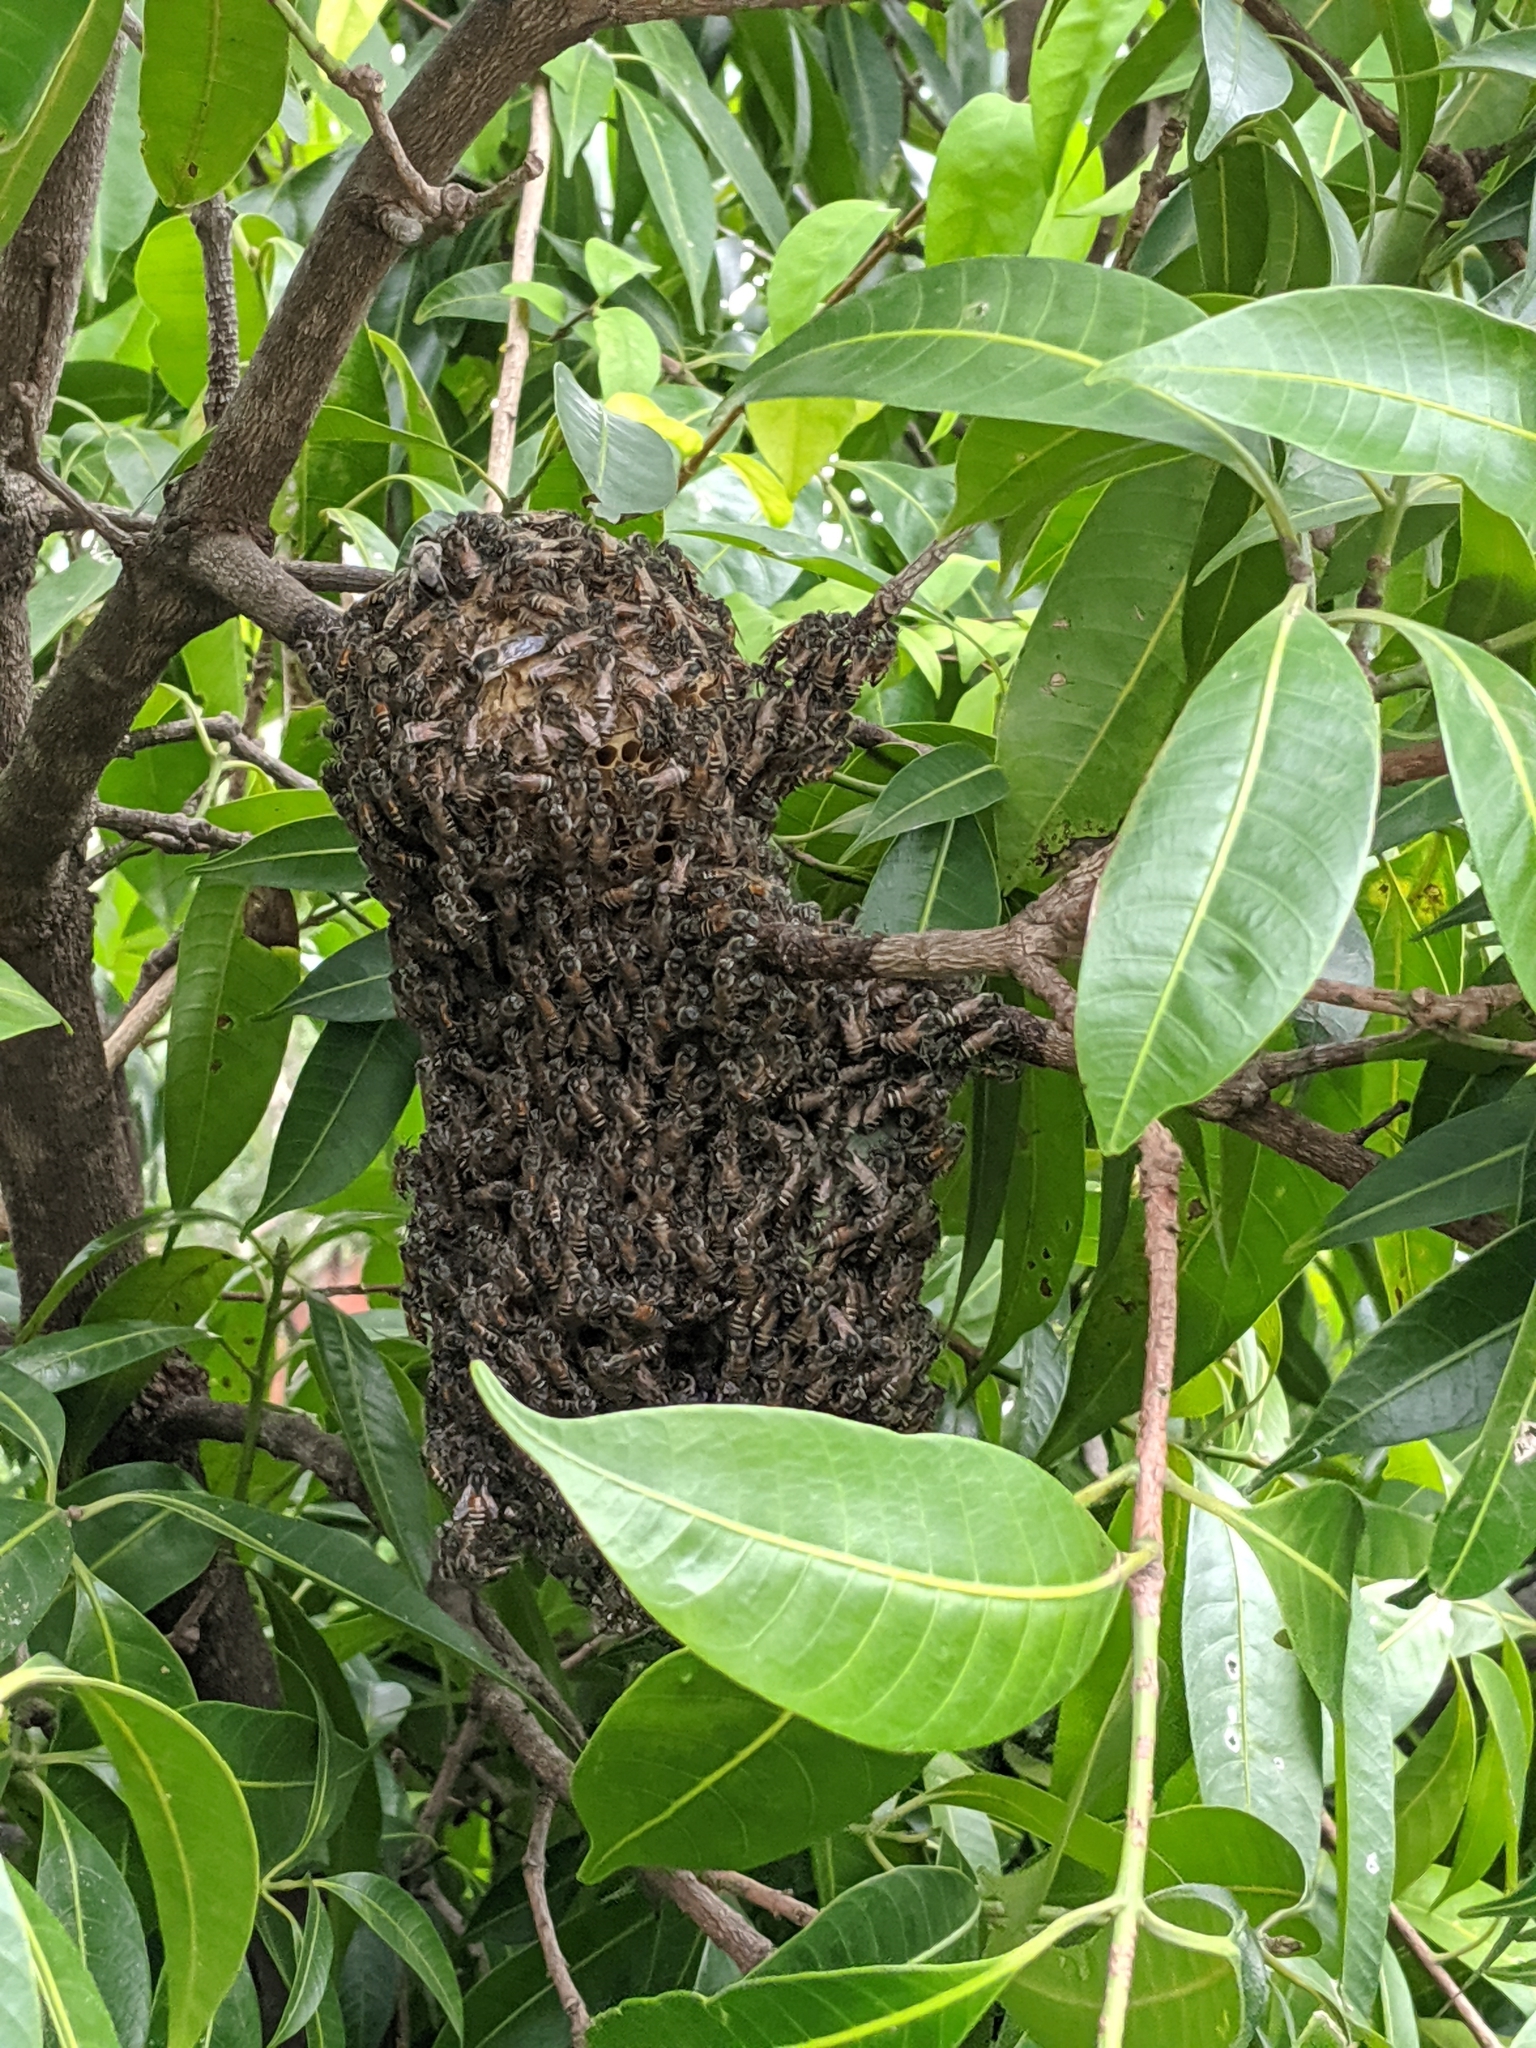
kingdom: Animalia
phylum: Arthropoda
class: Insecta
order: Hymenoptera
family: Apidae
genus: Apis
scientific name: Apis florea
